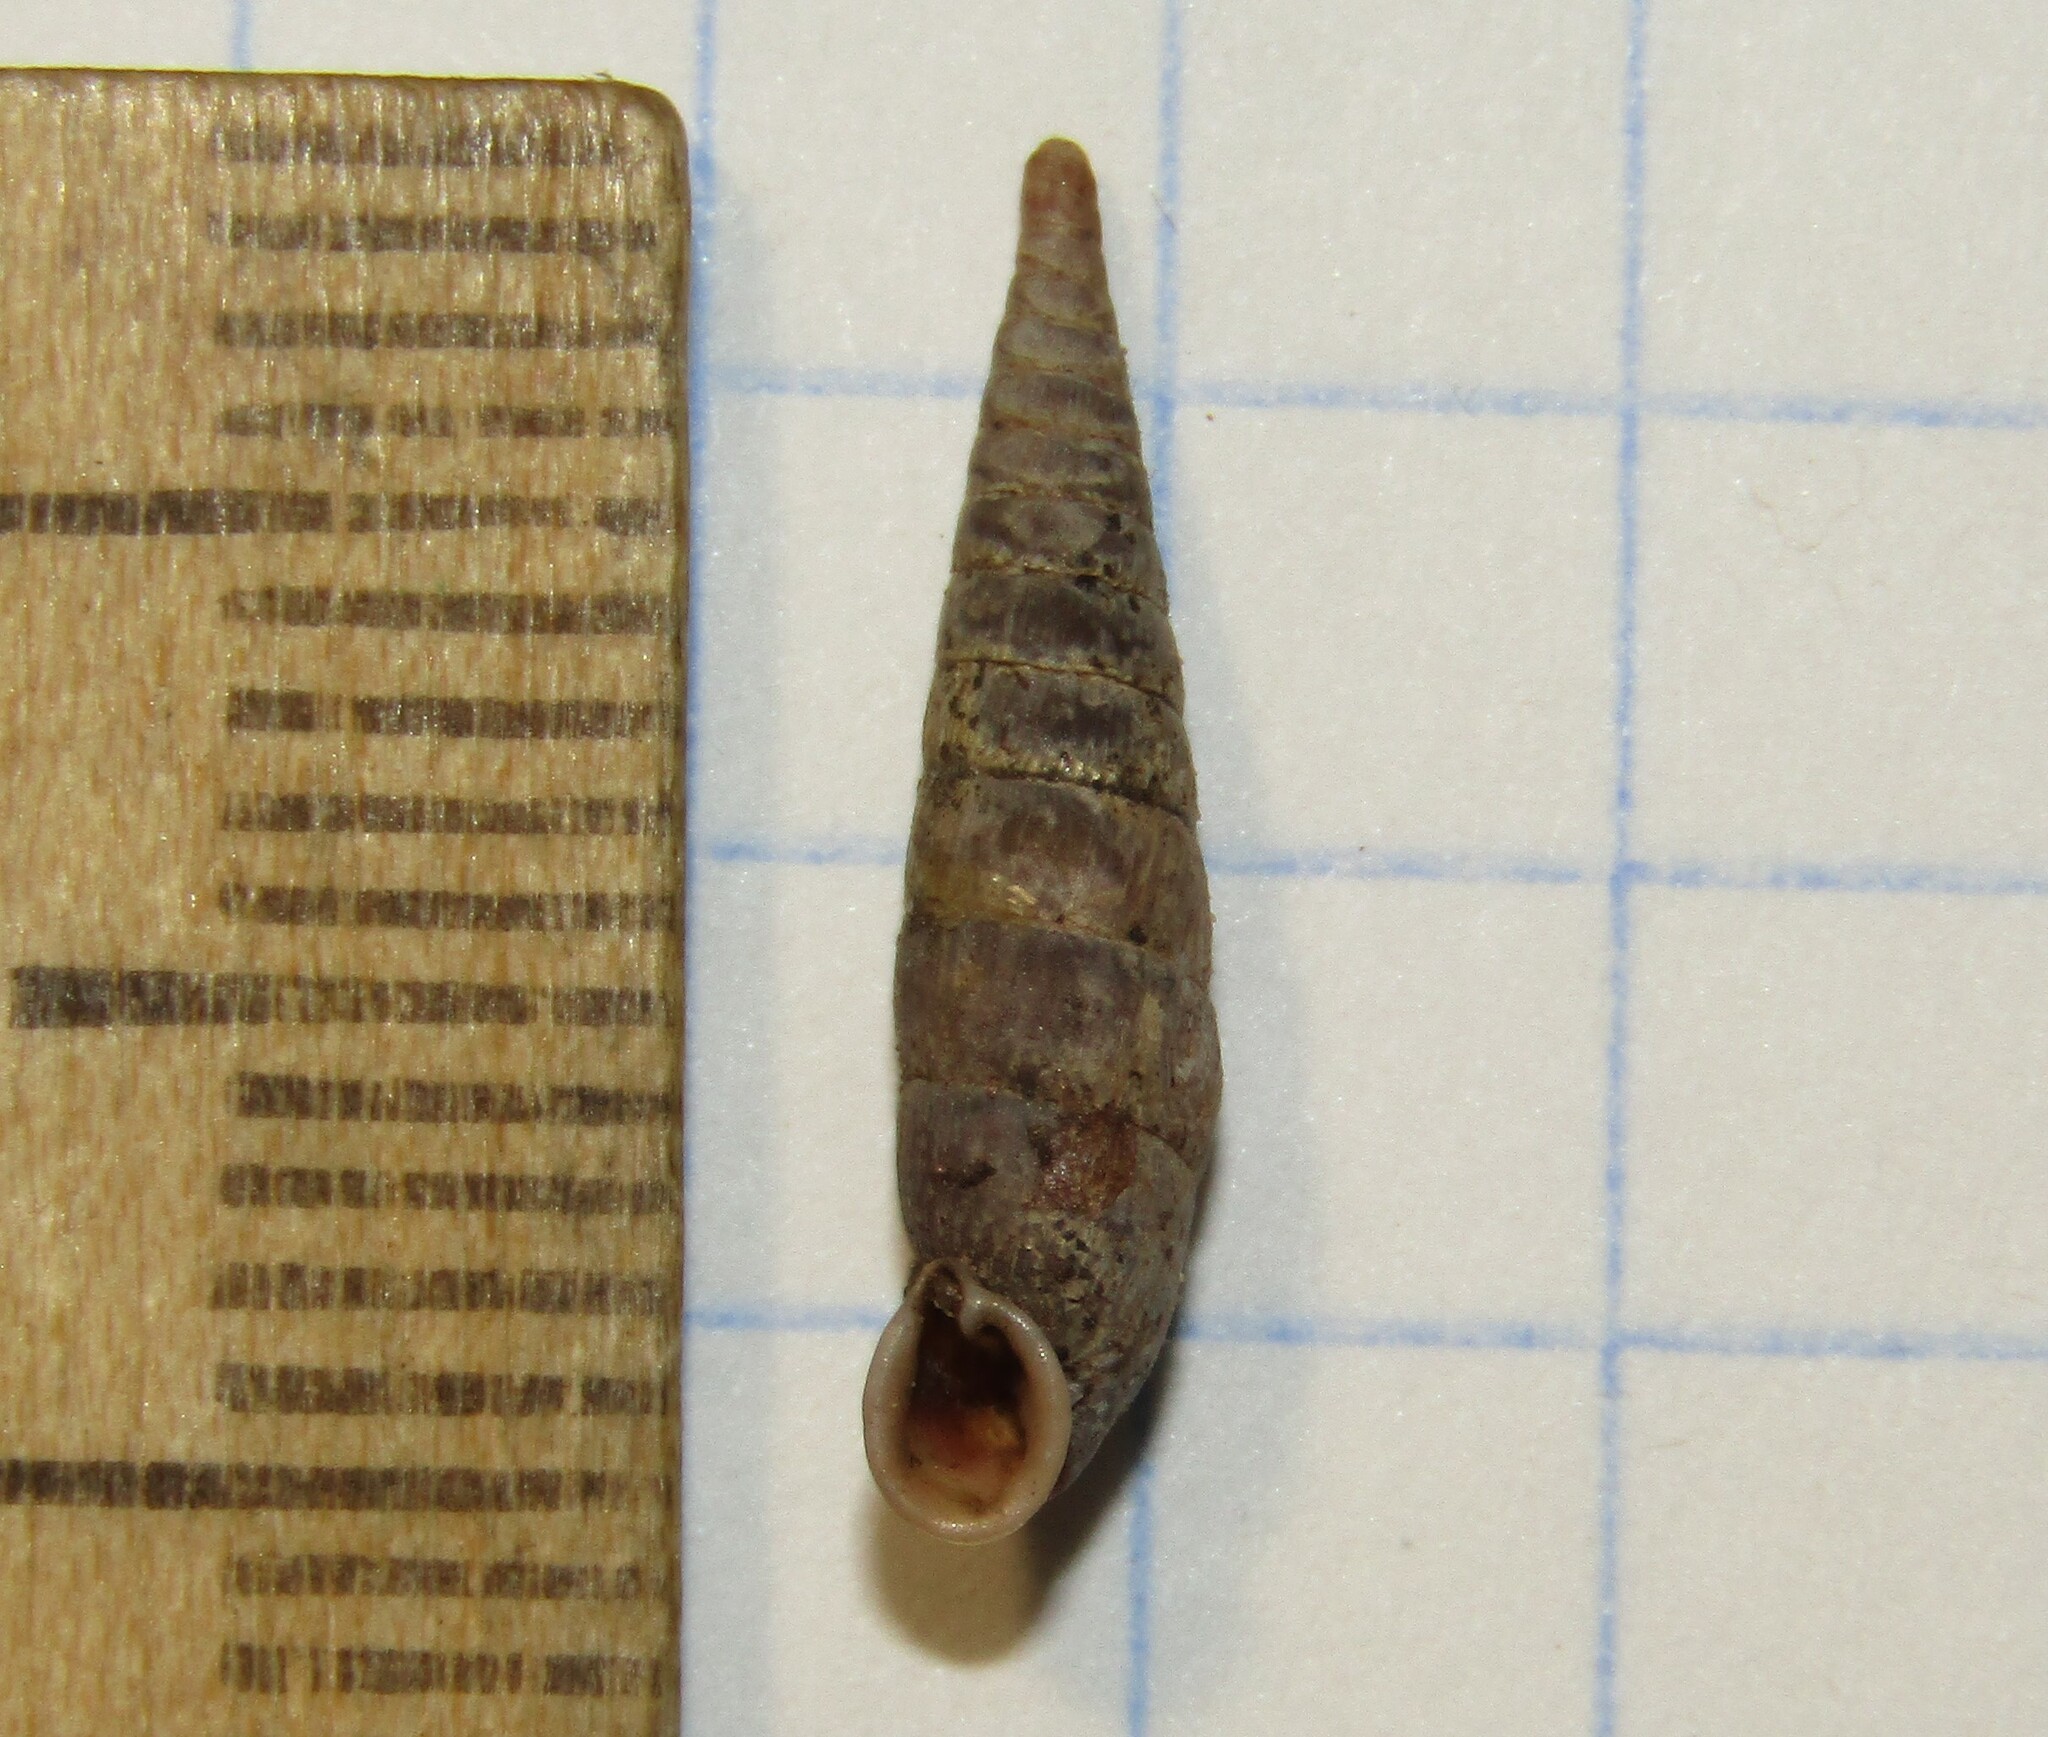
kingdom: Animalia
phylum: Mollusca
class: Gastropoda
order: Stylommatophora
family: Clausiliidae
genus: Clausilia
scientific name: Clausilia pumila
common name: Clublike door snail
